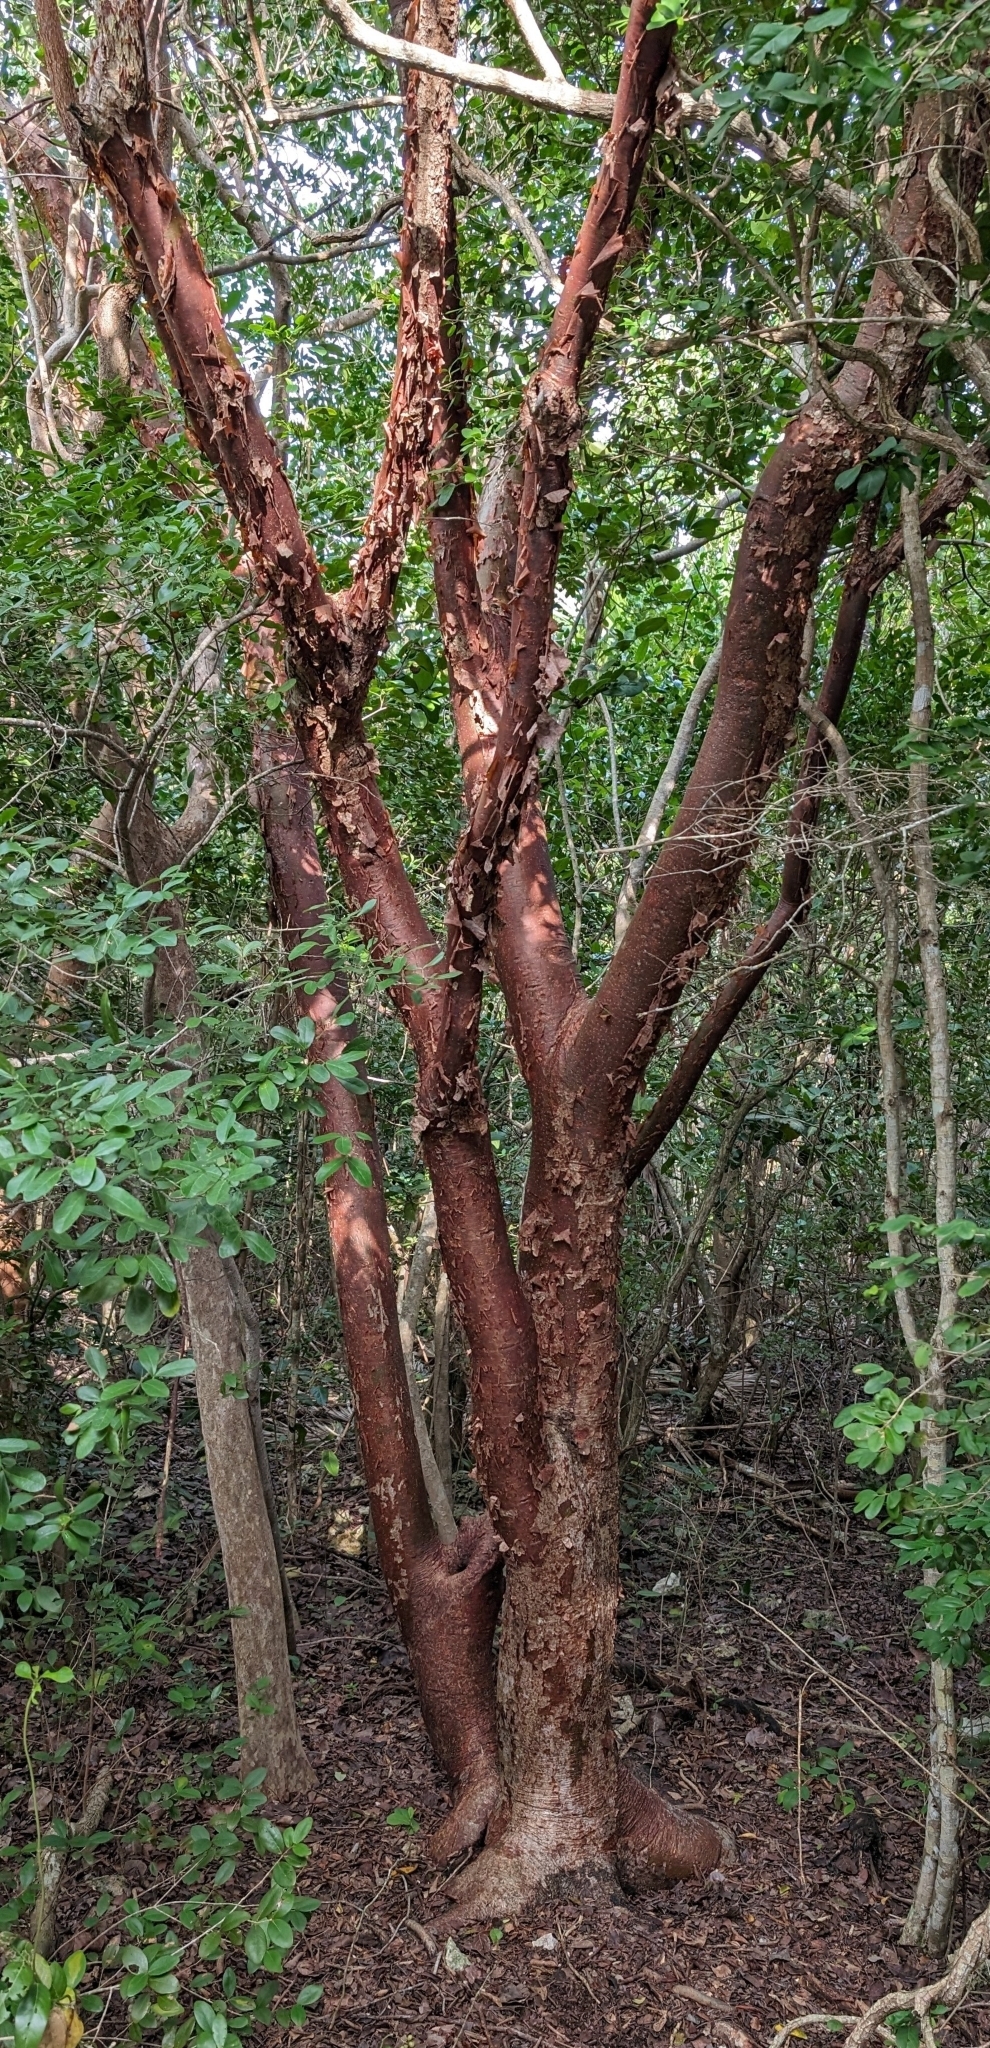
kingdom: Plantae
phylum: Tracheophyta
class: Magnoliopsida
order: Sapindales
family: Burseraceae
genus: Bursera
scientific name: Bursera simaruba
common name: Turpentine tree
